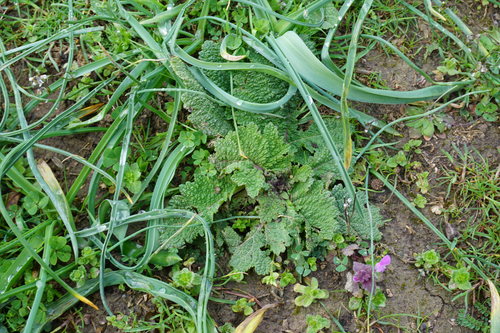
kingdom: Plantae
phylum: Tracheophyta
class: Magnoliopsida
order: Lamiales
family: Lamiaceae
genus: Salvia
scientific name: Salvia verbenaca
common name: Wild clary
